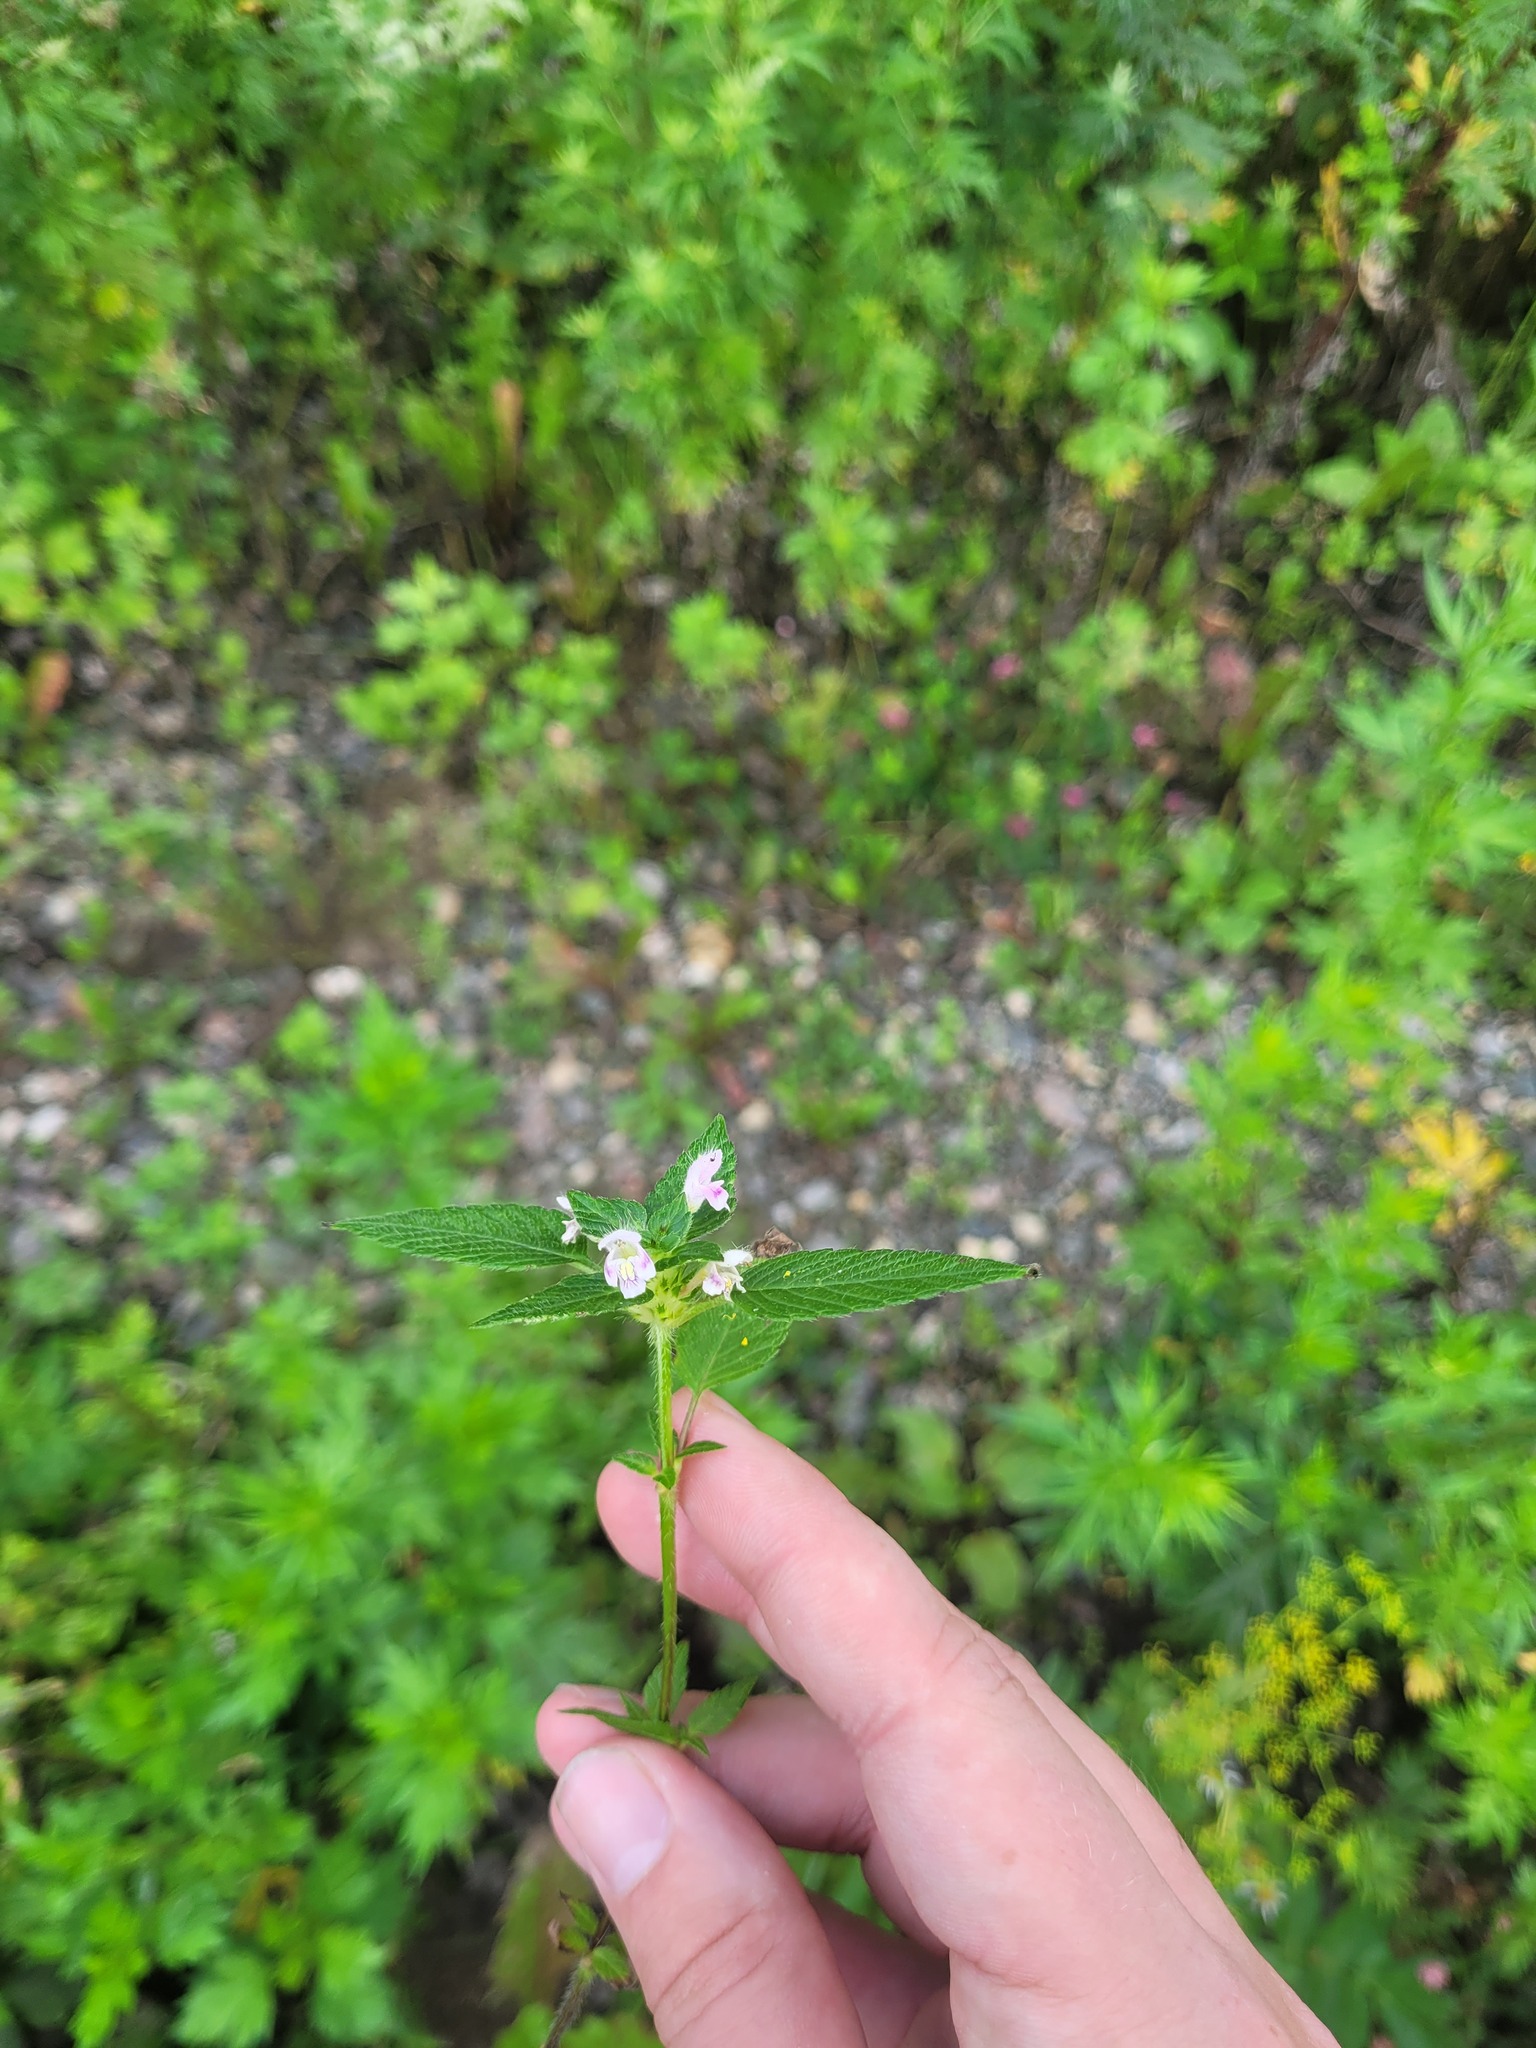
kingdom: Plantae
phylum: Tracheophyta
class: Magnoliopsida
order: Lamiales
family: Lamiaceae
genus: Galeopsis
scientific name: Galeopsis tetrahit
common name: Common hemp-nettle
